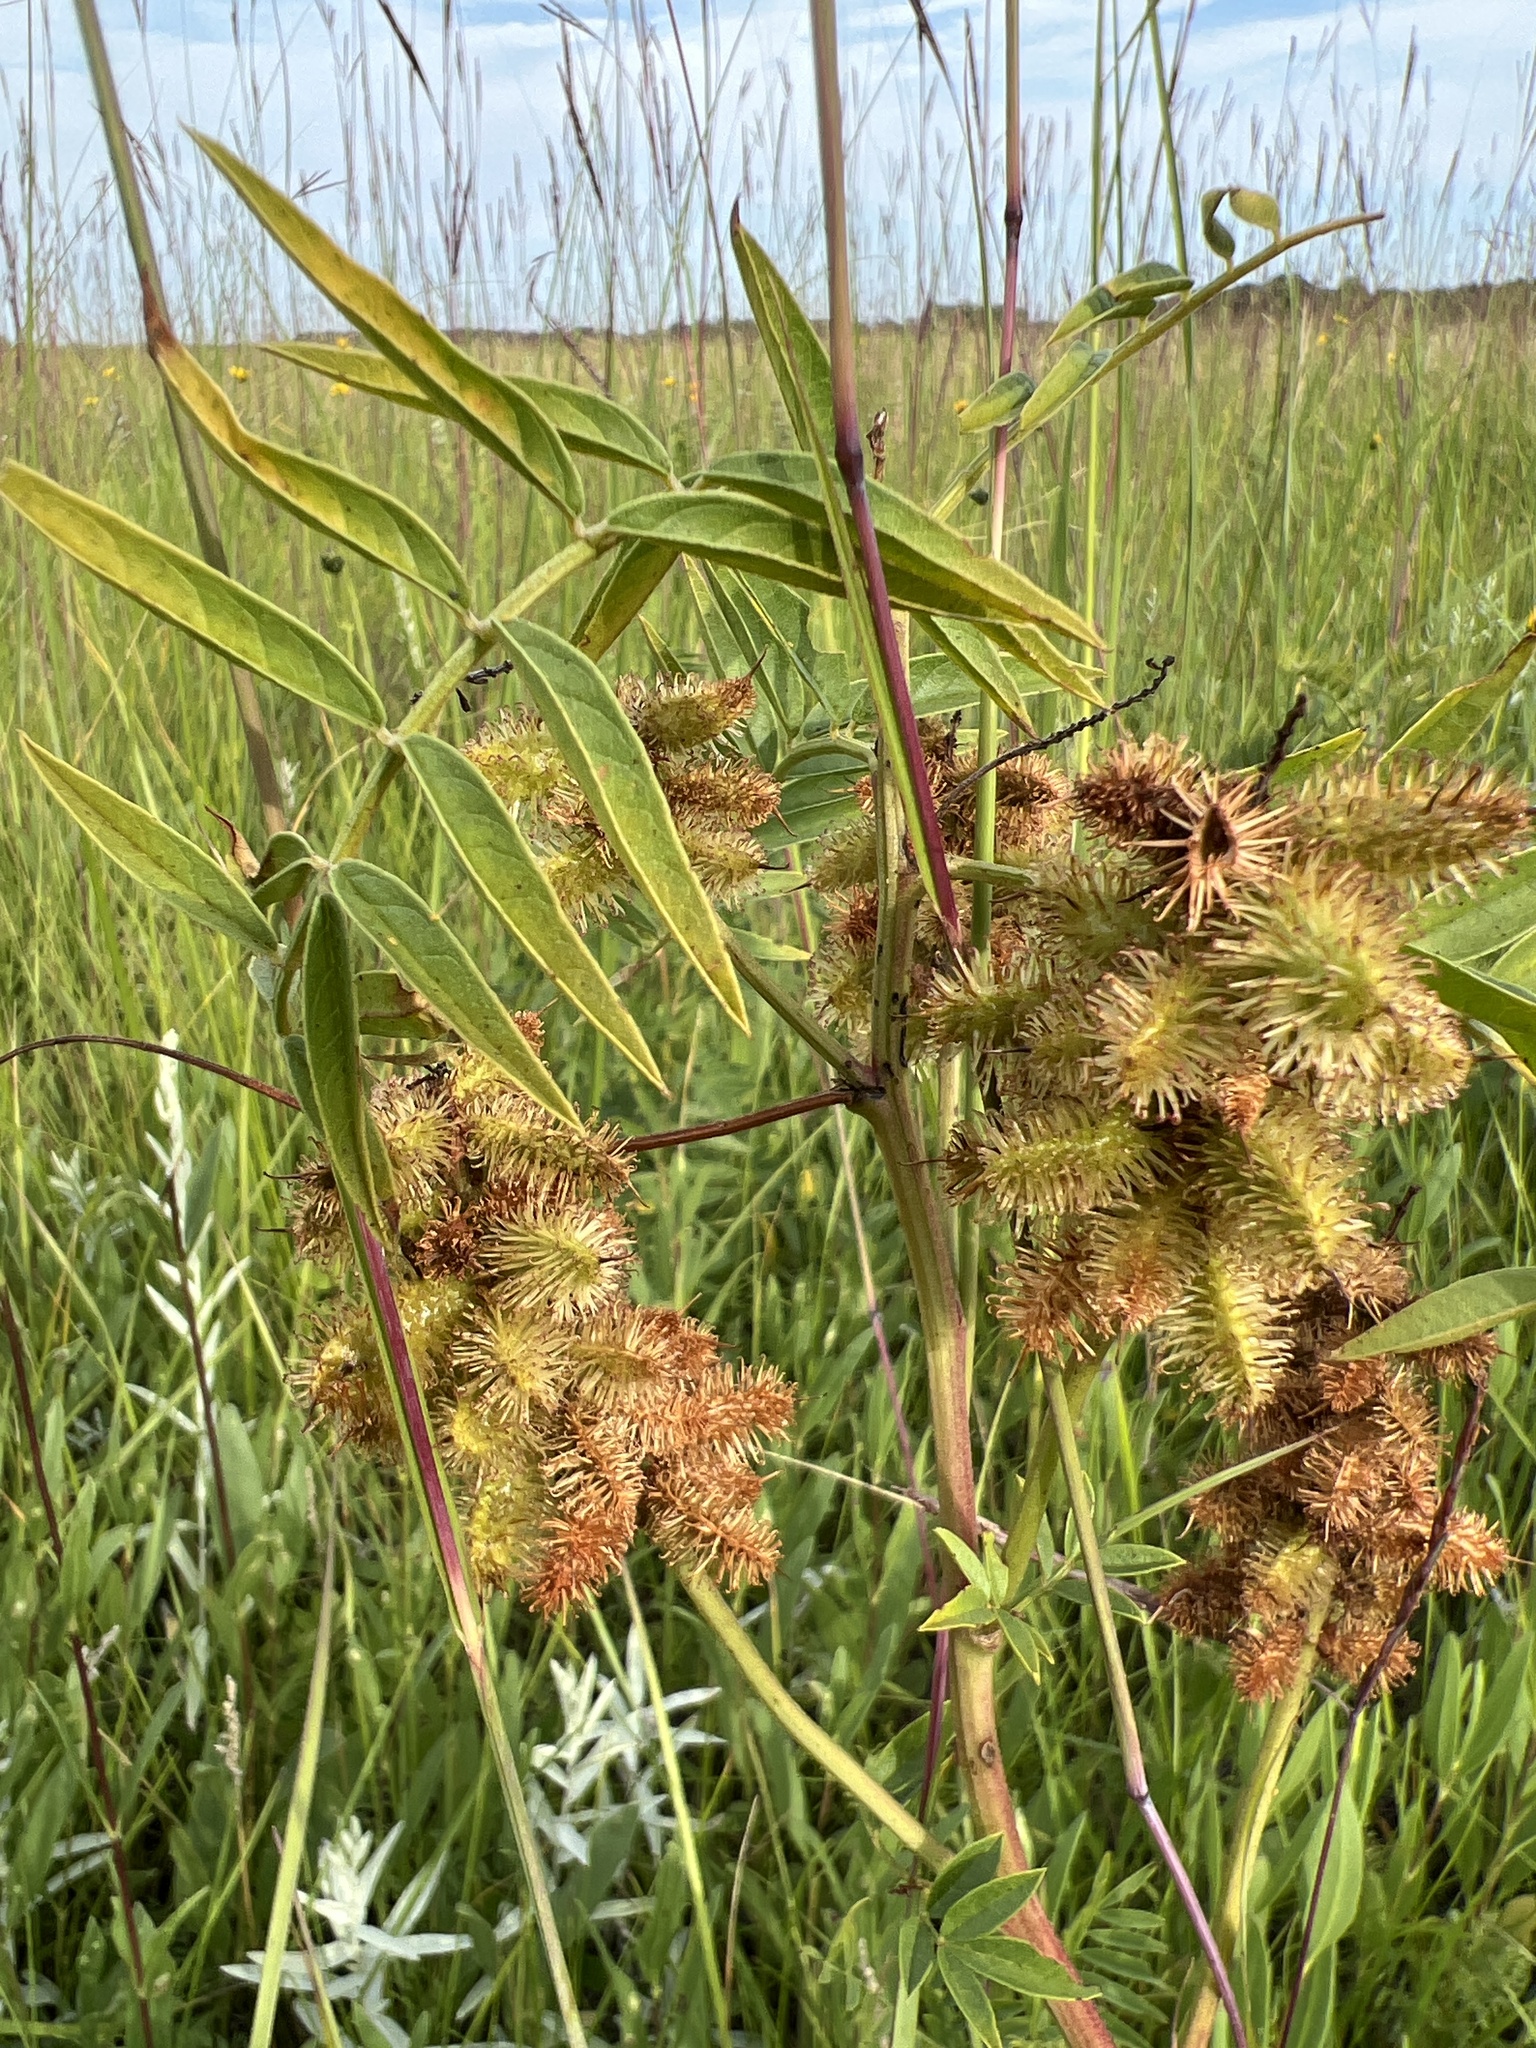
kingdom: Plantae
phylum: Tracheophyta
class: Magnoliopsida
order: Fabales
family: Fabaceae
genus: Glycyrrhiza
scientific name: Glycyrrhiza lepidota
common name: American liquorice
